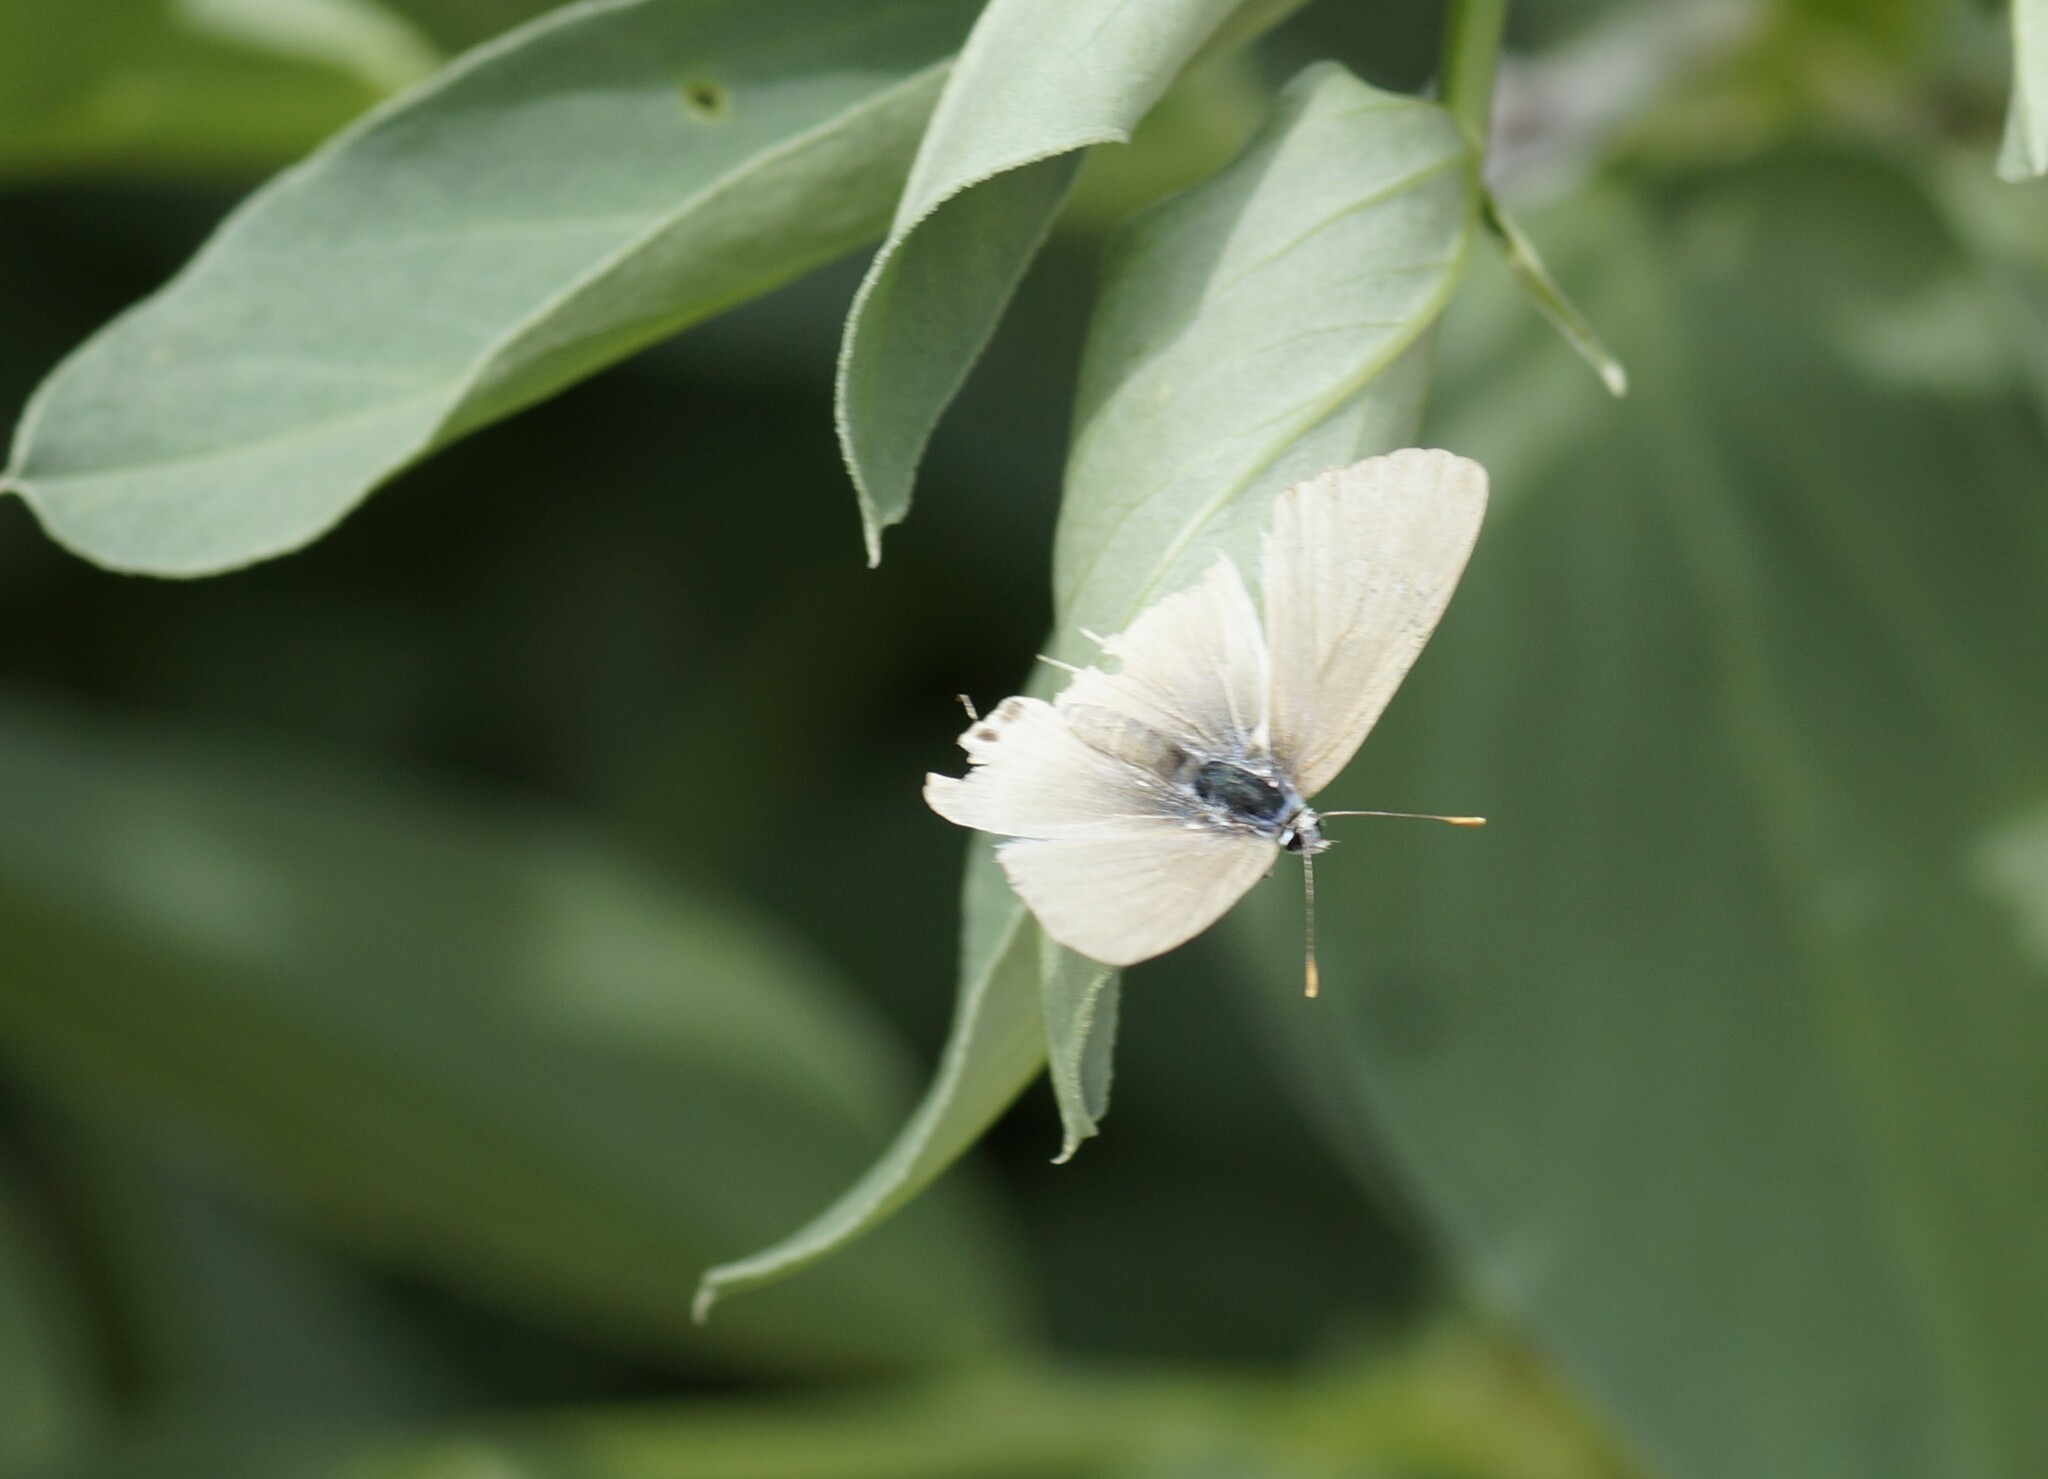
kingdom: Animalia
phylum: Arthropoda
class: Insecta
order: Lepidoptera
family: Lycaenidae
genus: Lampides
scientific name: Lampides boeticus
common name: Long-tailed blue
